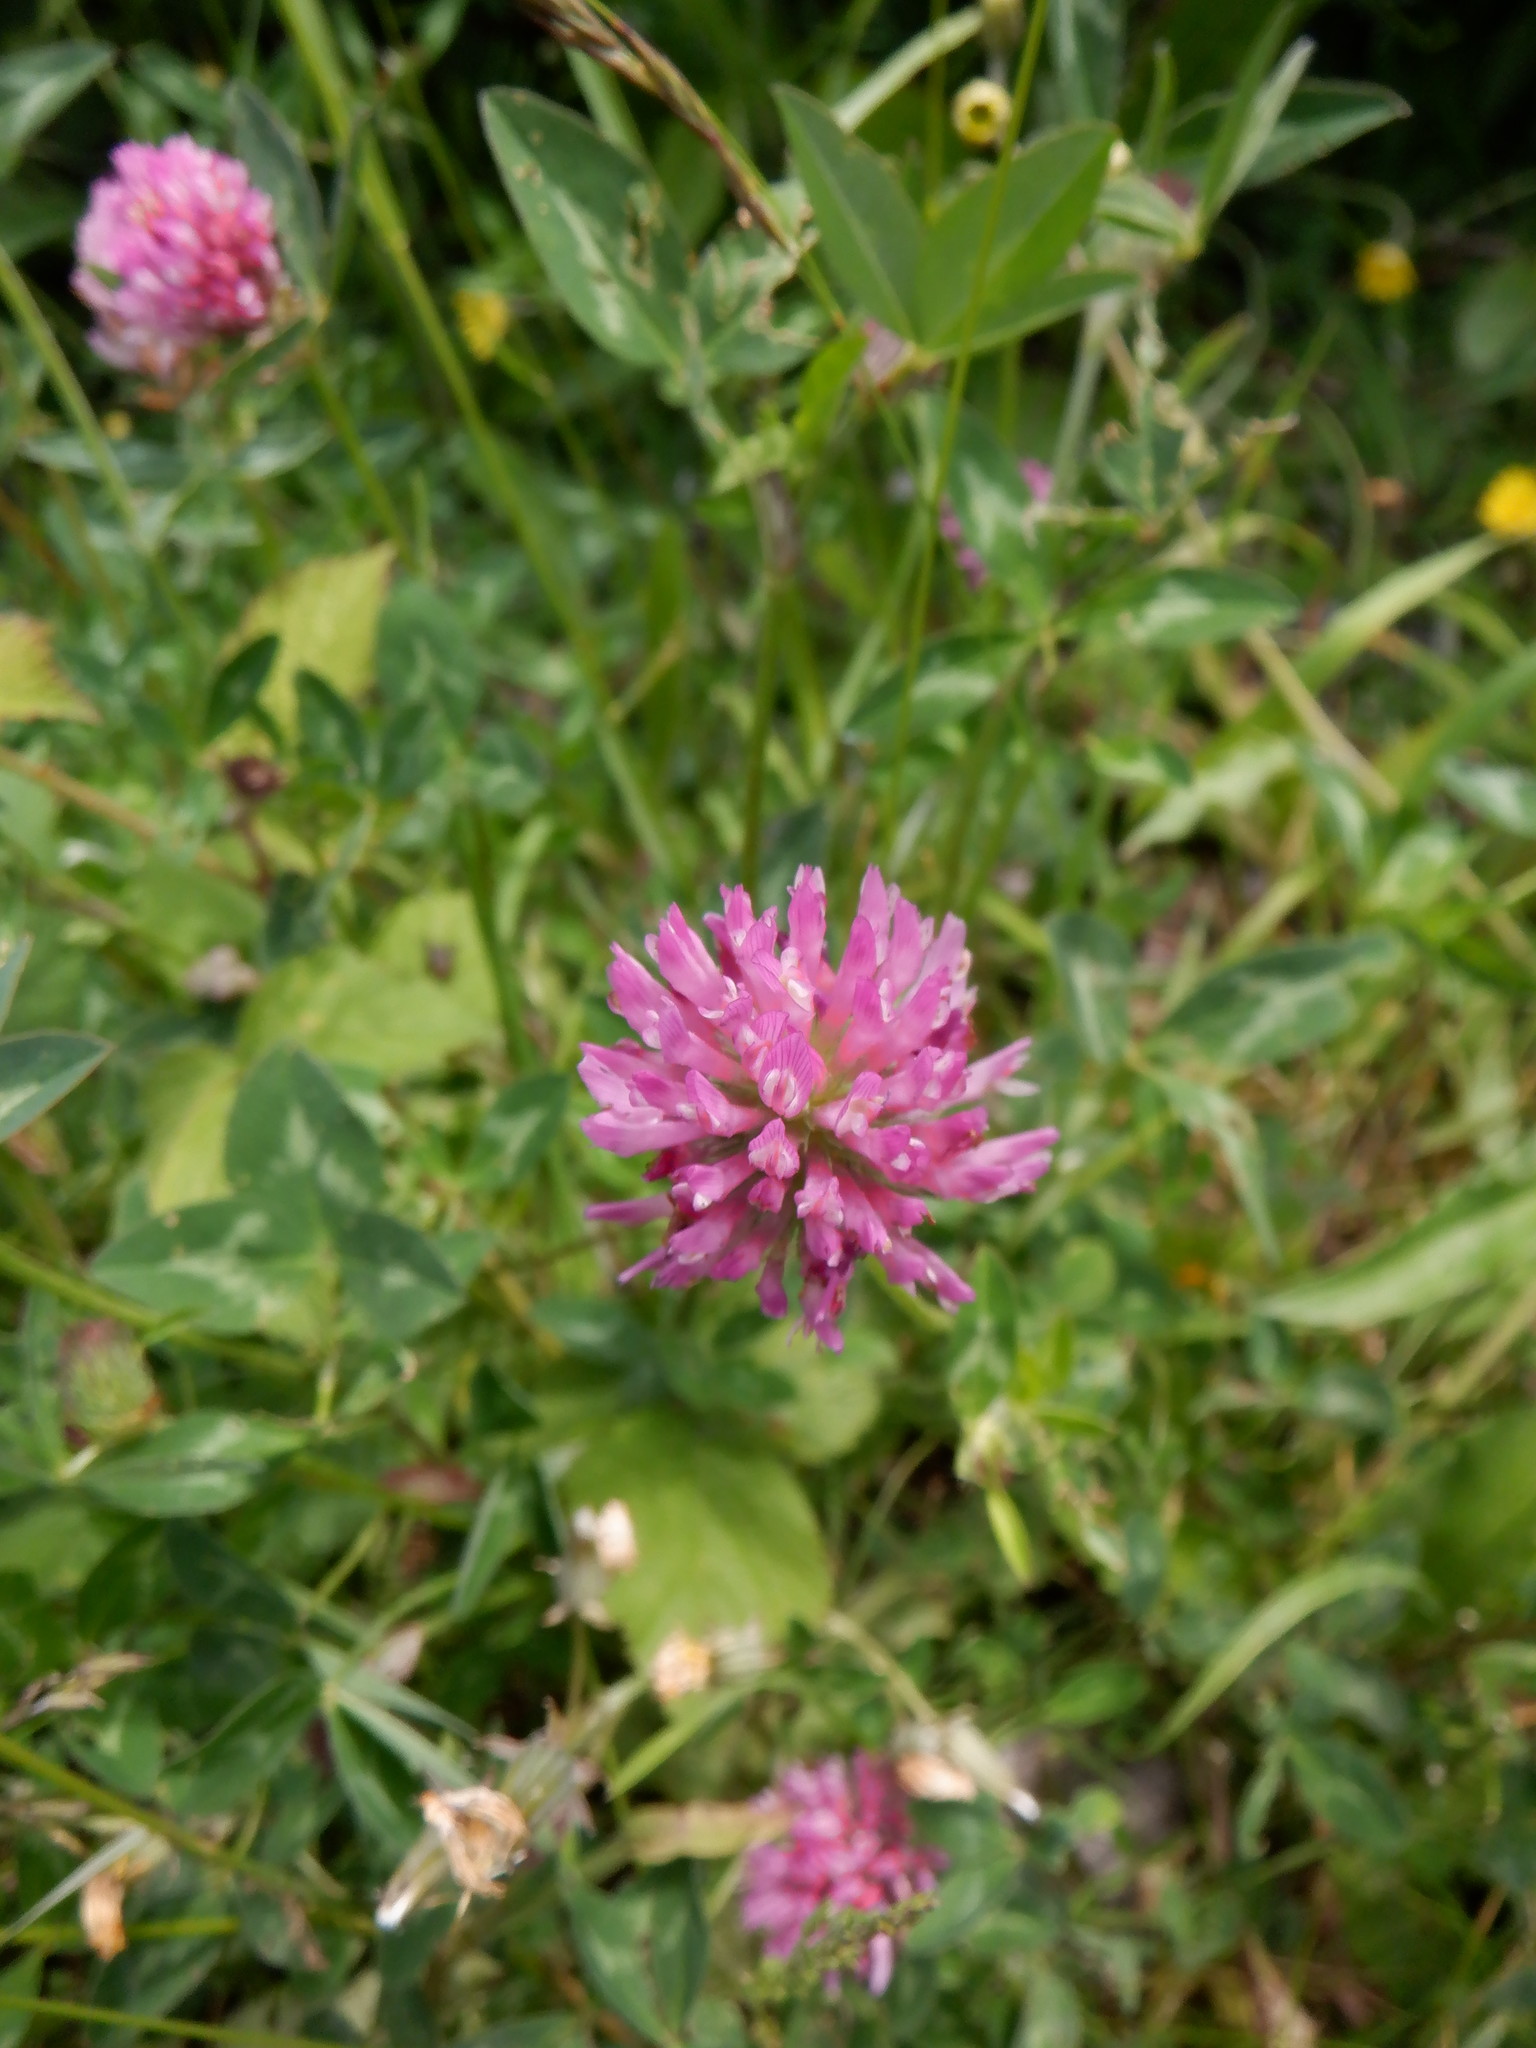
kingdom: Plantae
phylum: Tracheophyta
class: Magnoliopsida
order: Fabales
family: Fabaceae
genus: Trifolium
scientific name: Trifolium pratense
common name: Red clover
